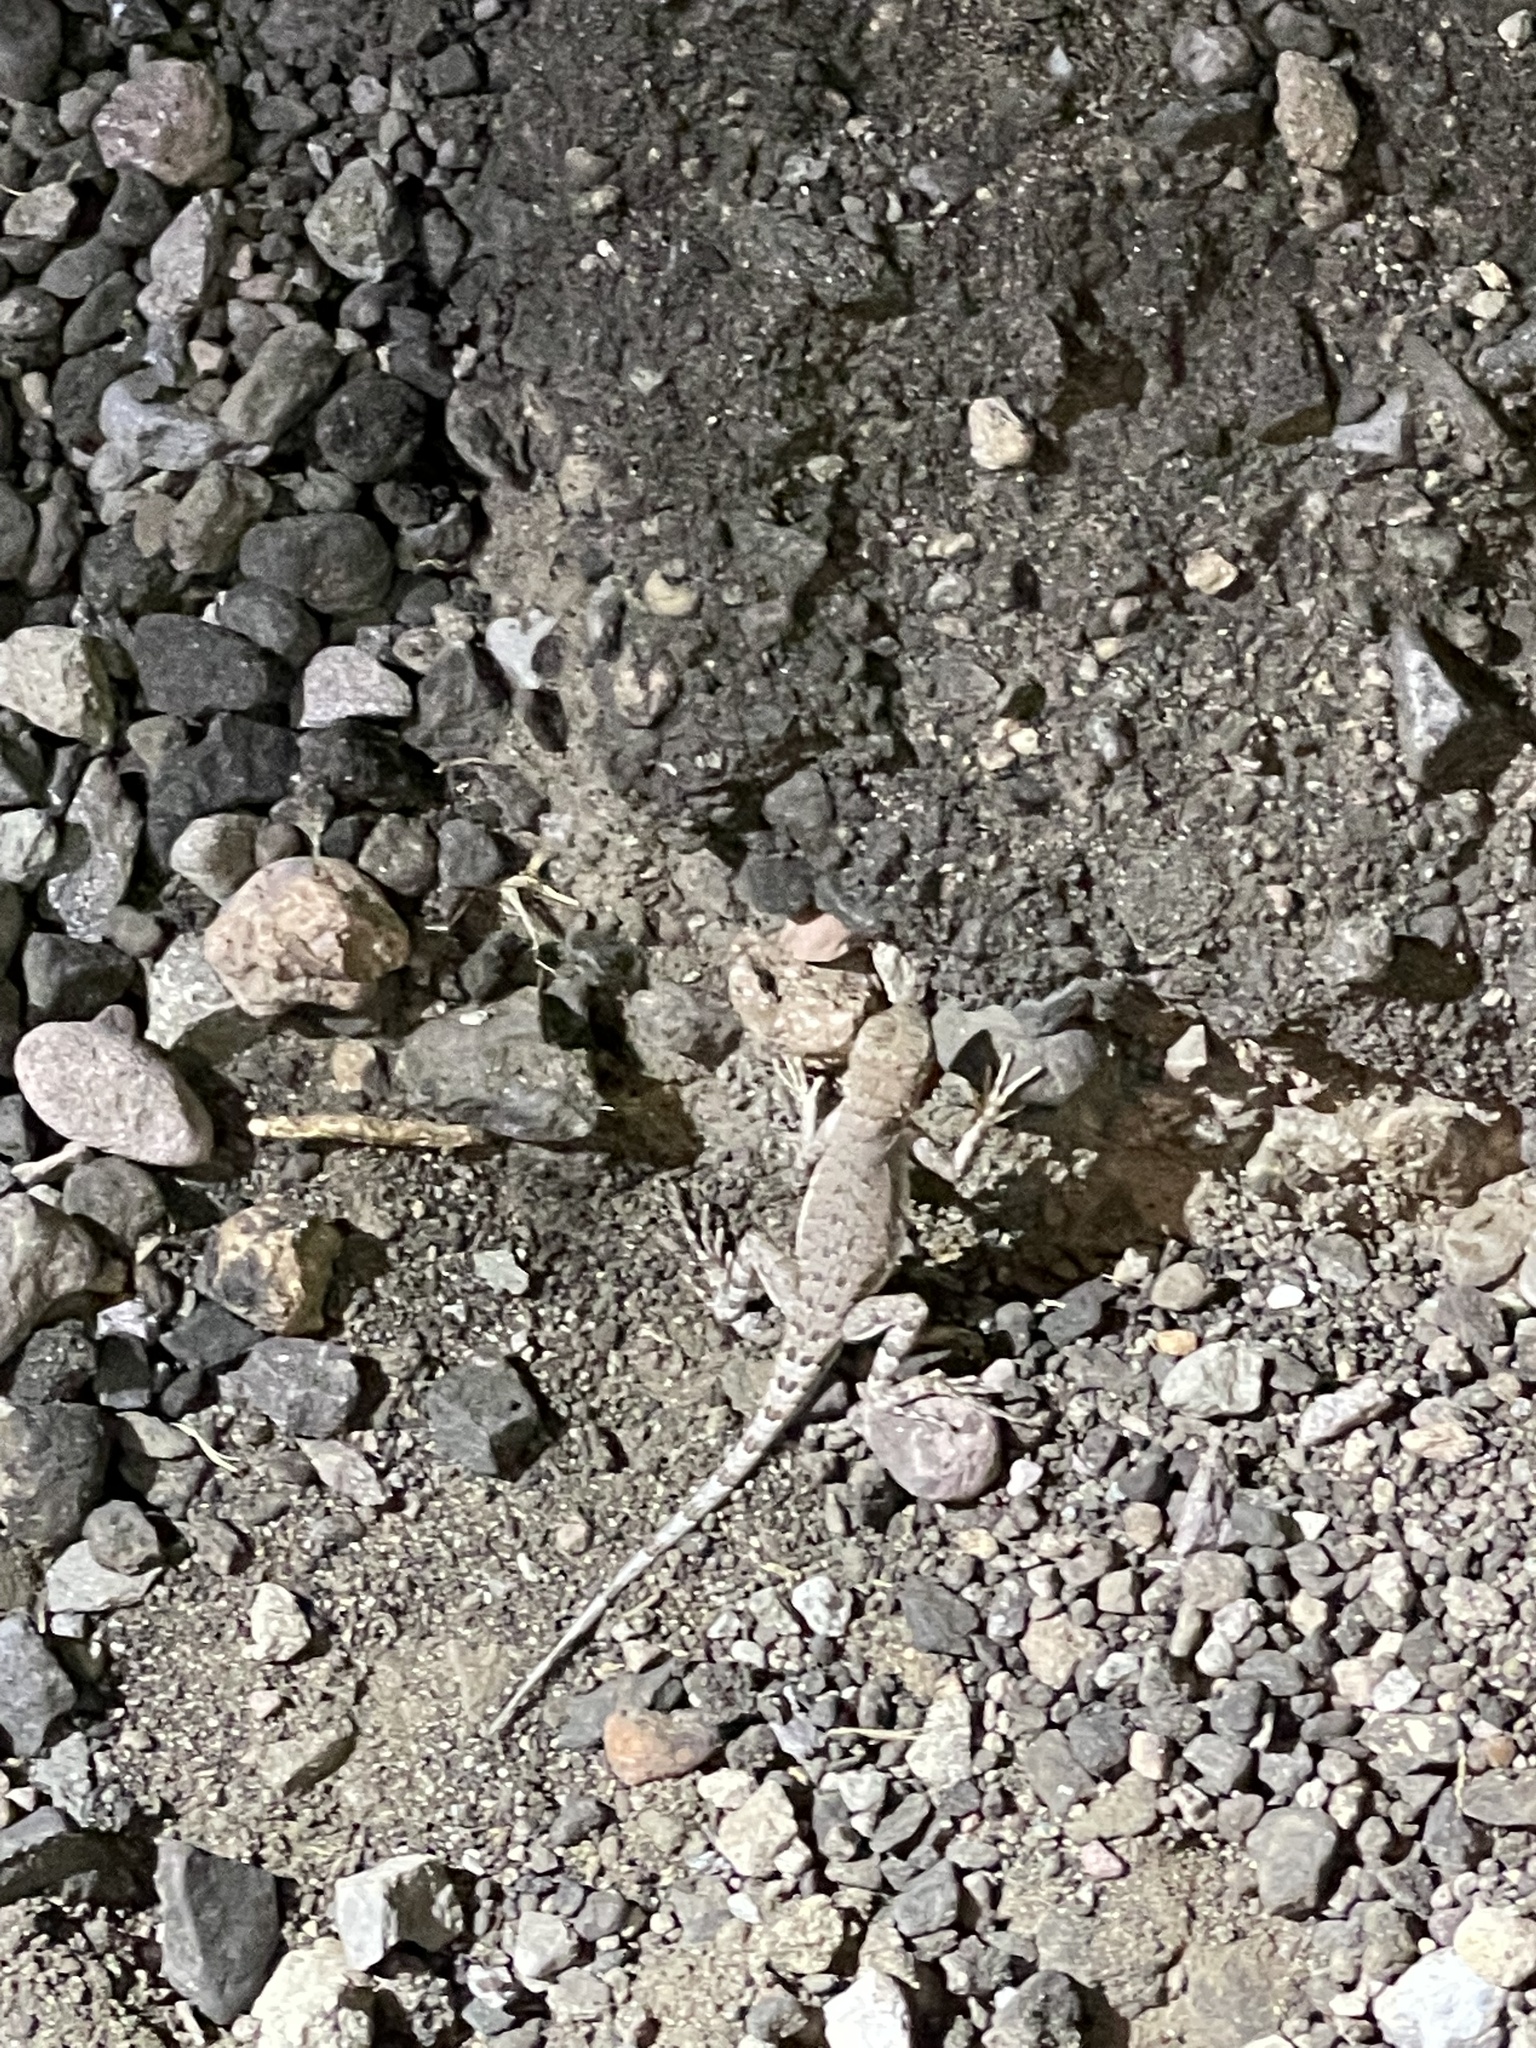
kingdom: Animalia
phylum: Chordata
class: Squamata
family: Phrynosomatidae
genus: Callisaurus
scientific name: Callisaurus draconoides
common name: Zebra-tailed lizard
